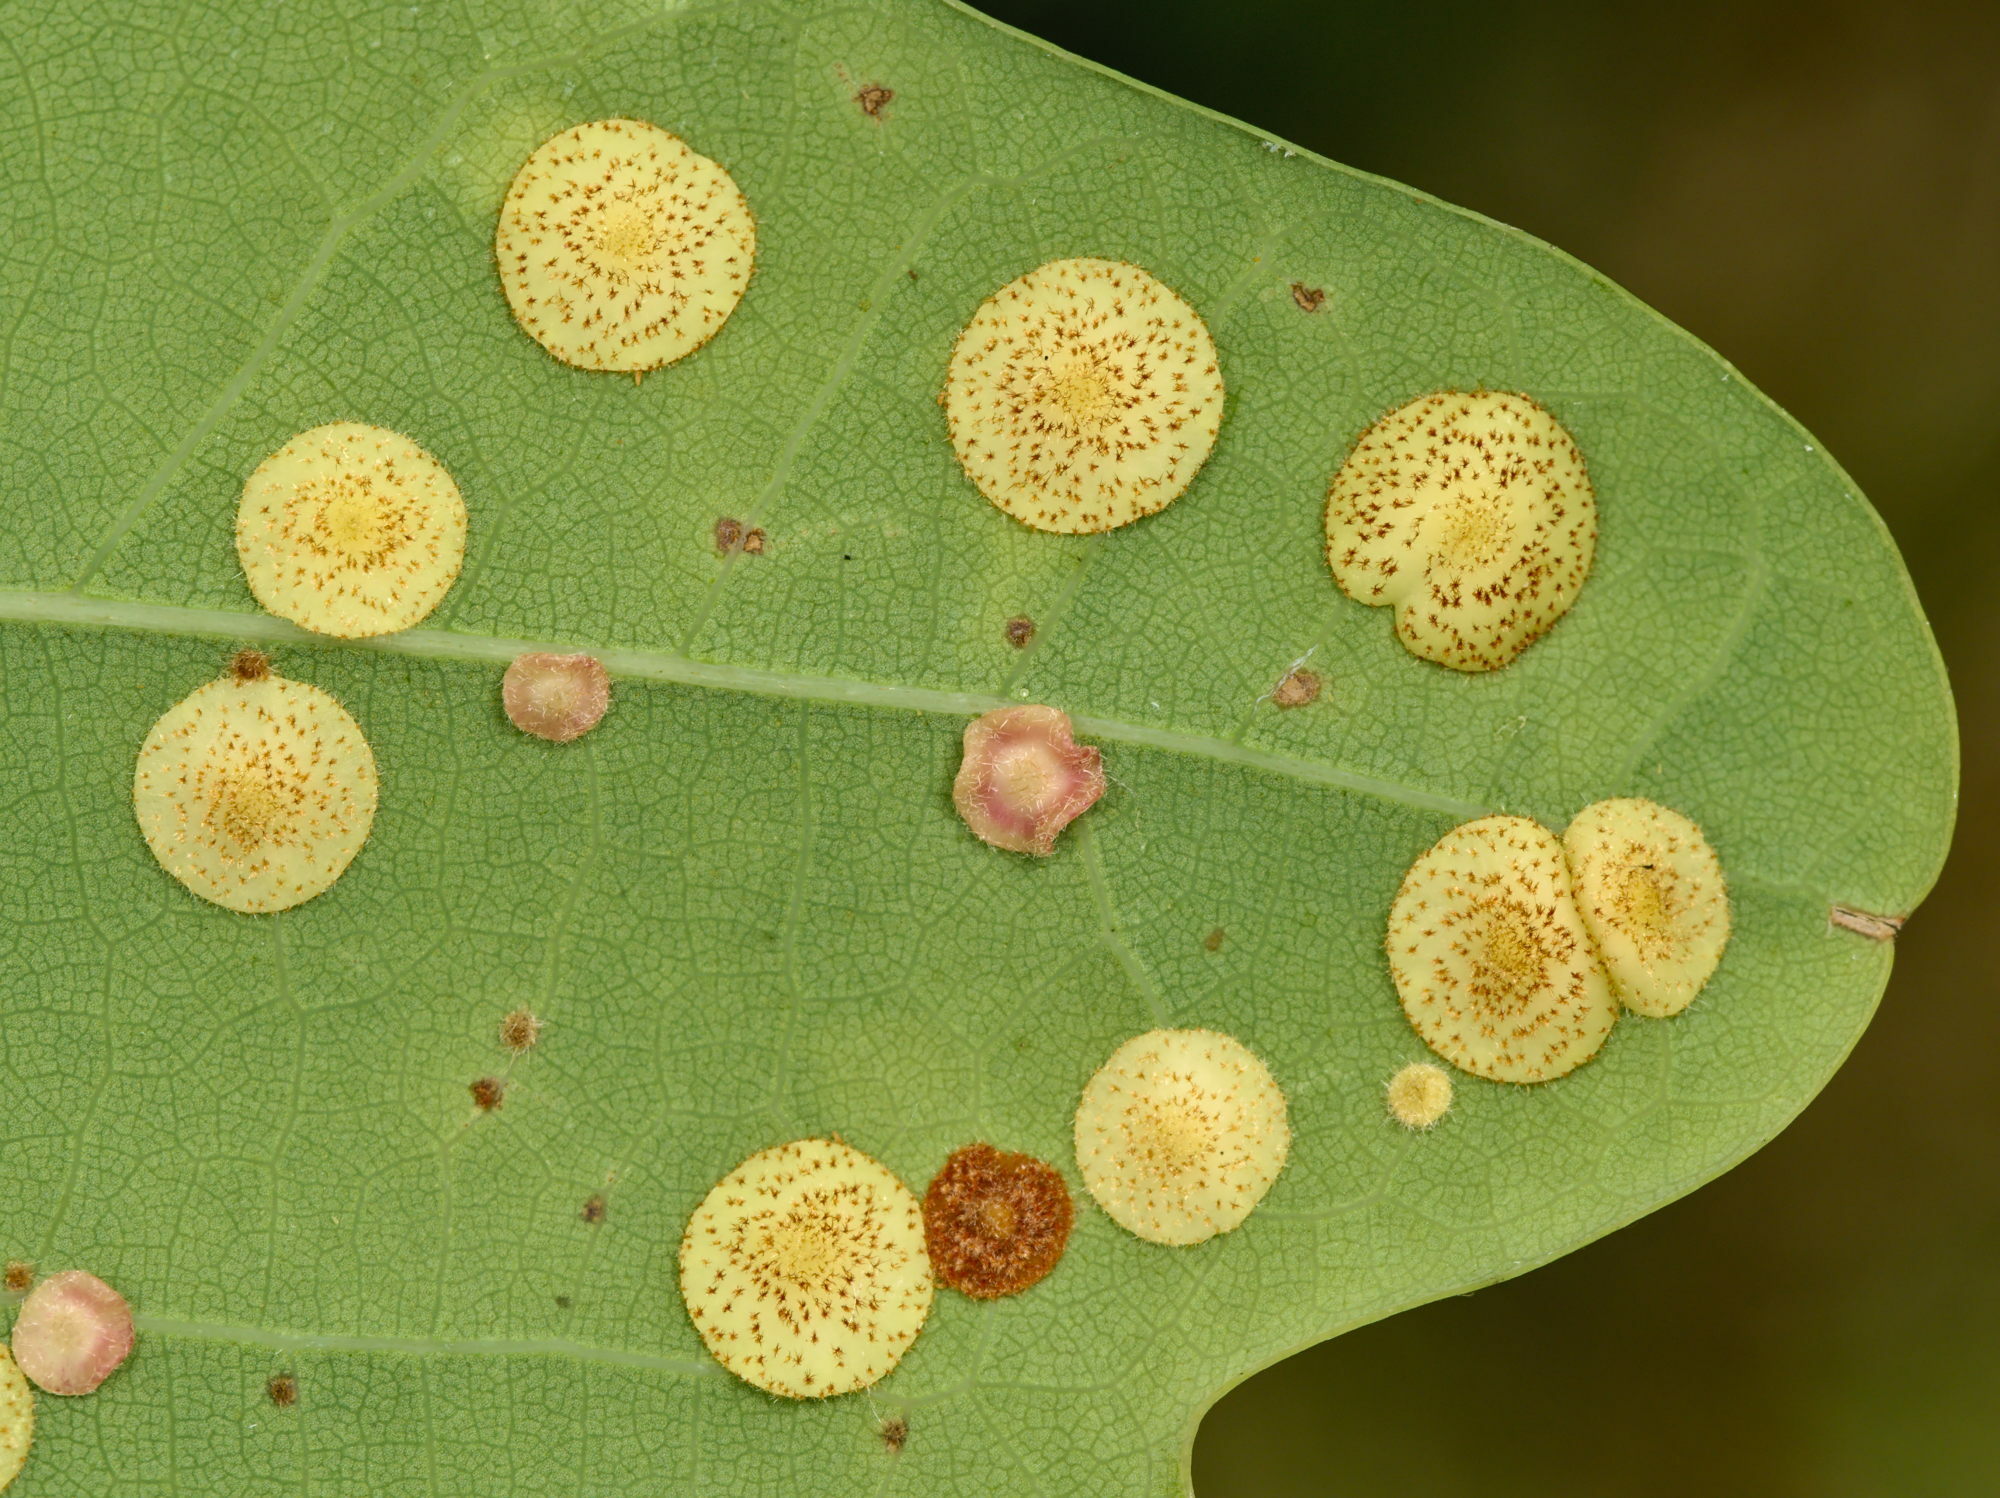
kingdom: Animalia
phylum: Arthropoda
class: Insecta
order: Hymenoptera
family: Cynipidae
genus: Neuroterus
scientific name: Neuroterus quercusbaccarum
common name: Common spangle gall
